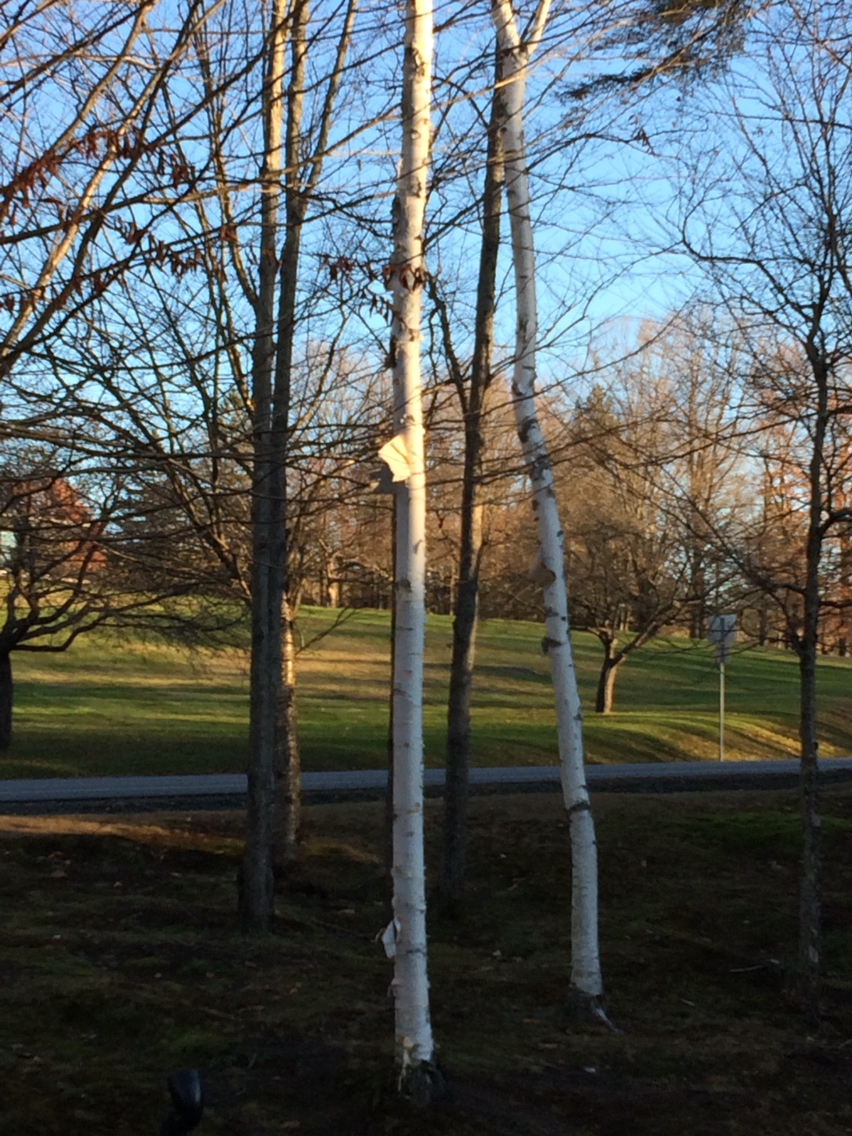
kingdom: Plantae
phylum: Tracheophyta
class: Magnoliopsida
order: Fagales
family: Betulaceae
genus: Betula
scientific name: Betula papyrifera
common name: Paper birch
